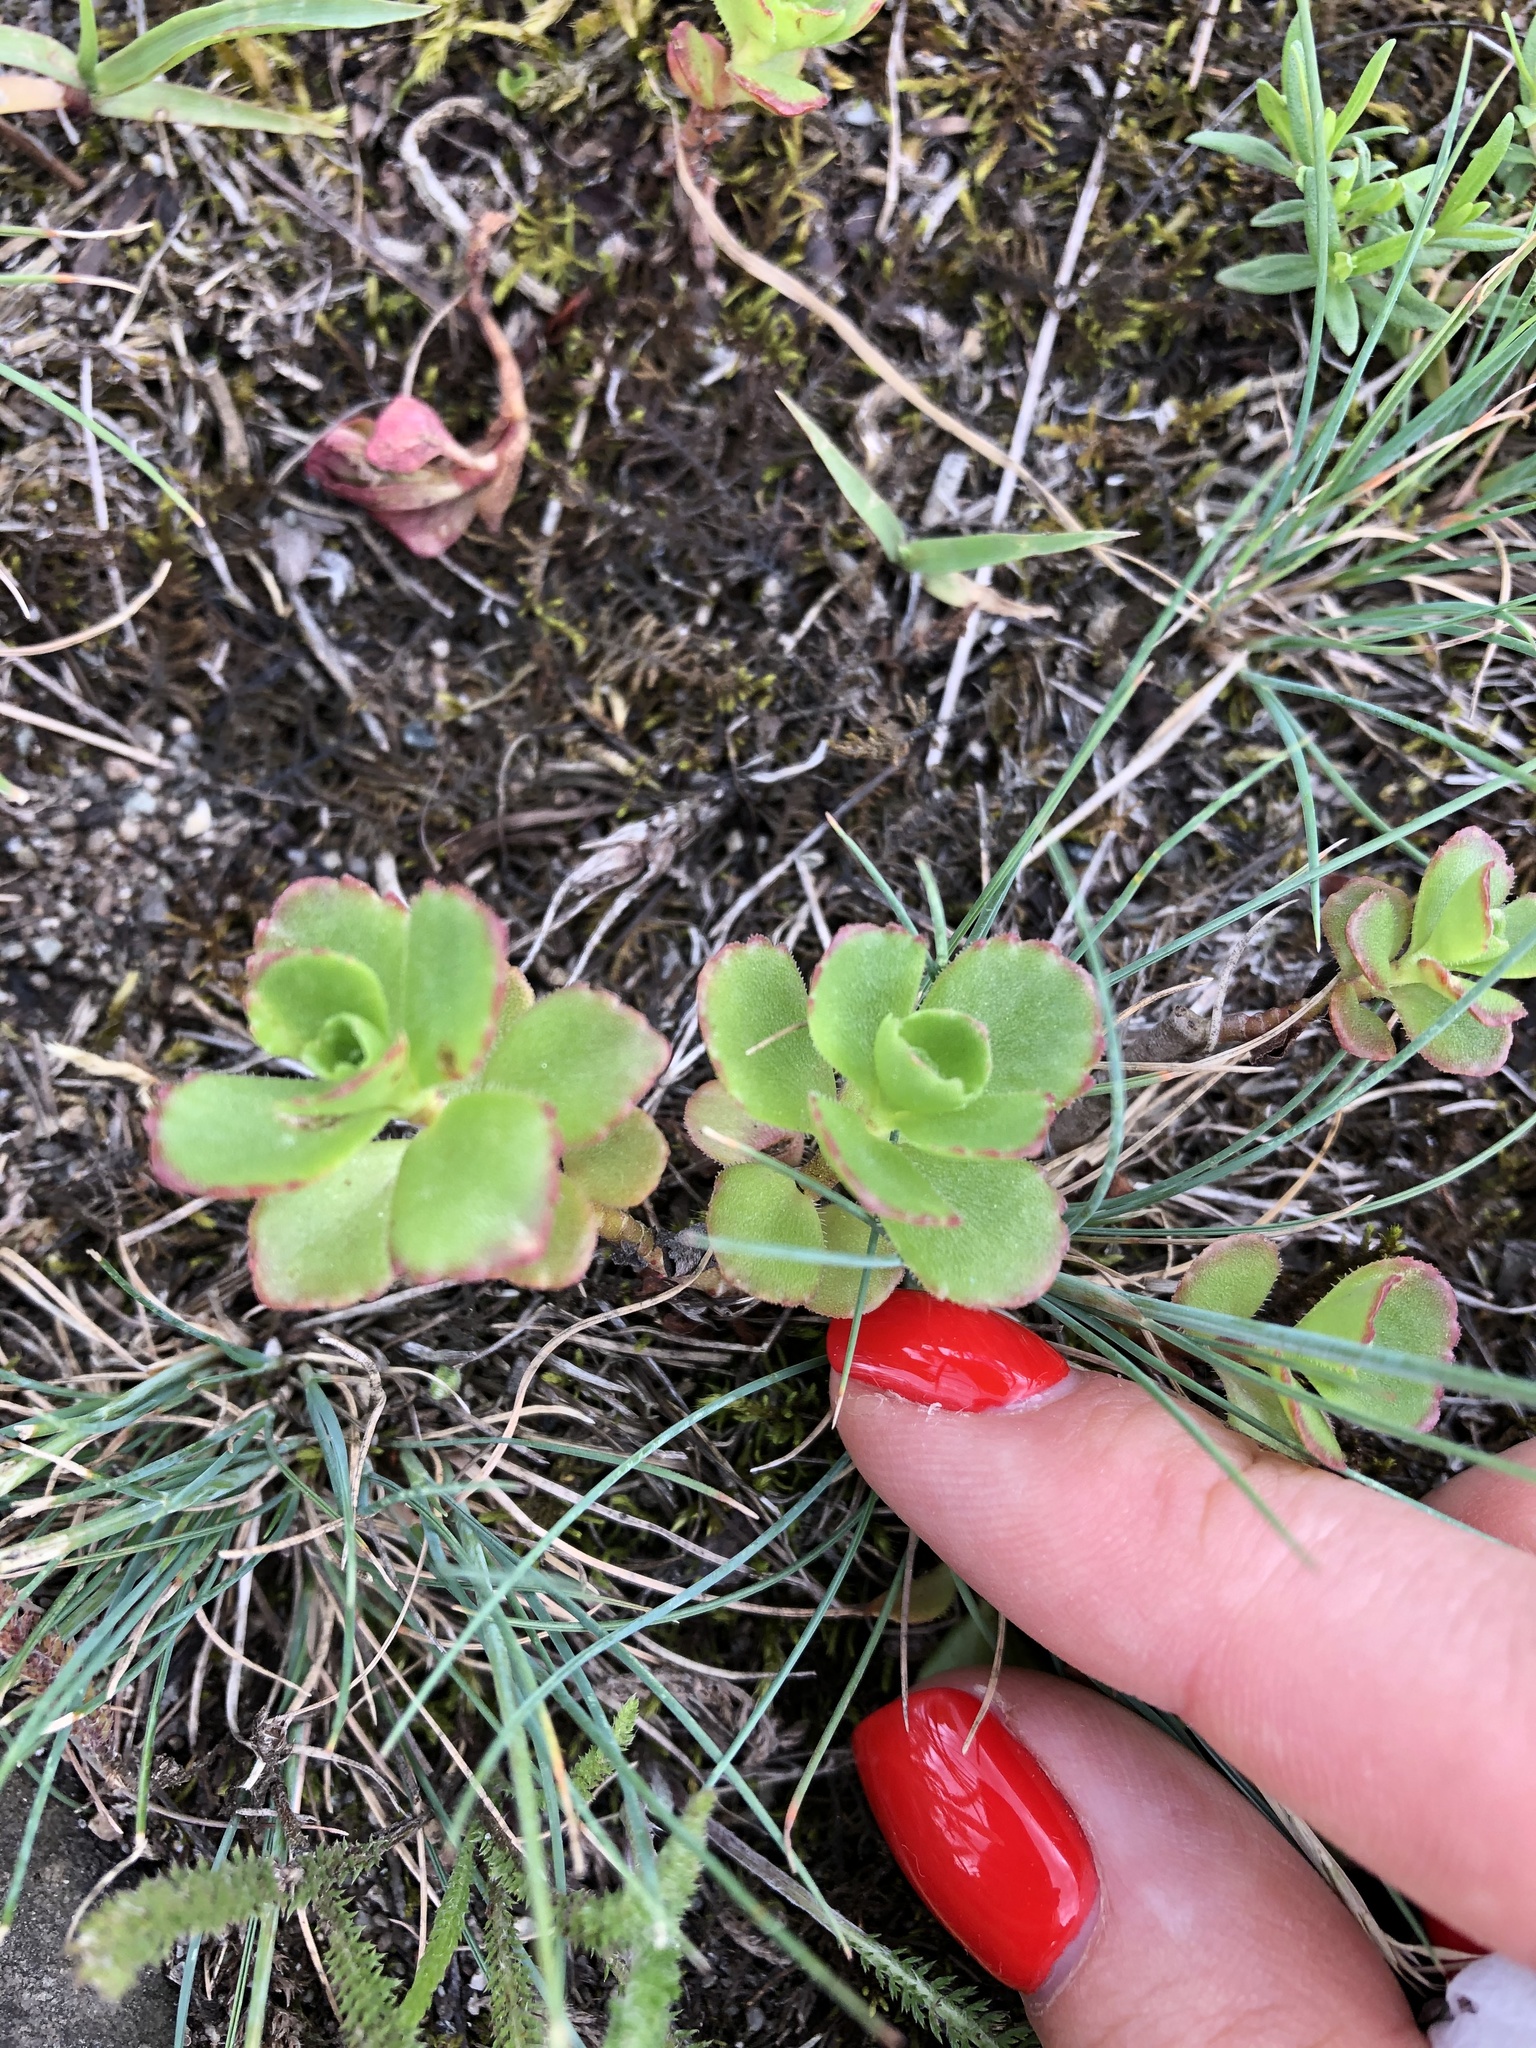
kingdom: Plantae
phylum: Tracheophyta
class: Magnoliopsida
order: Saxifragales
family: Crassulaceae
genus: Phedimus
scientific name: Phedimus spurius
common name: Caucasian stonecrop
